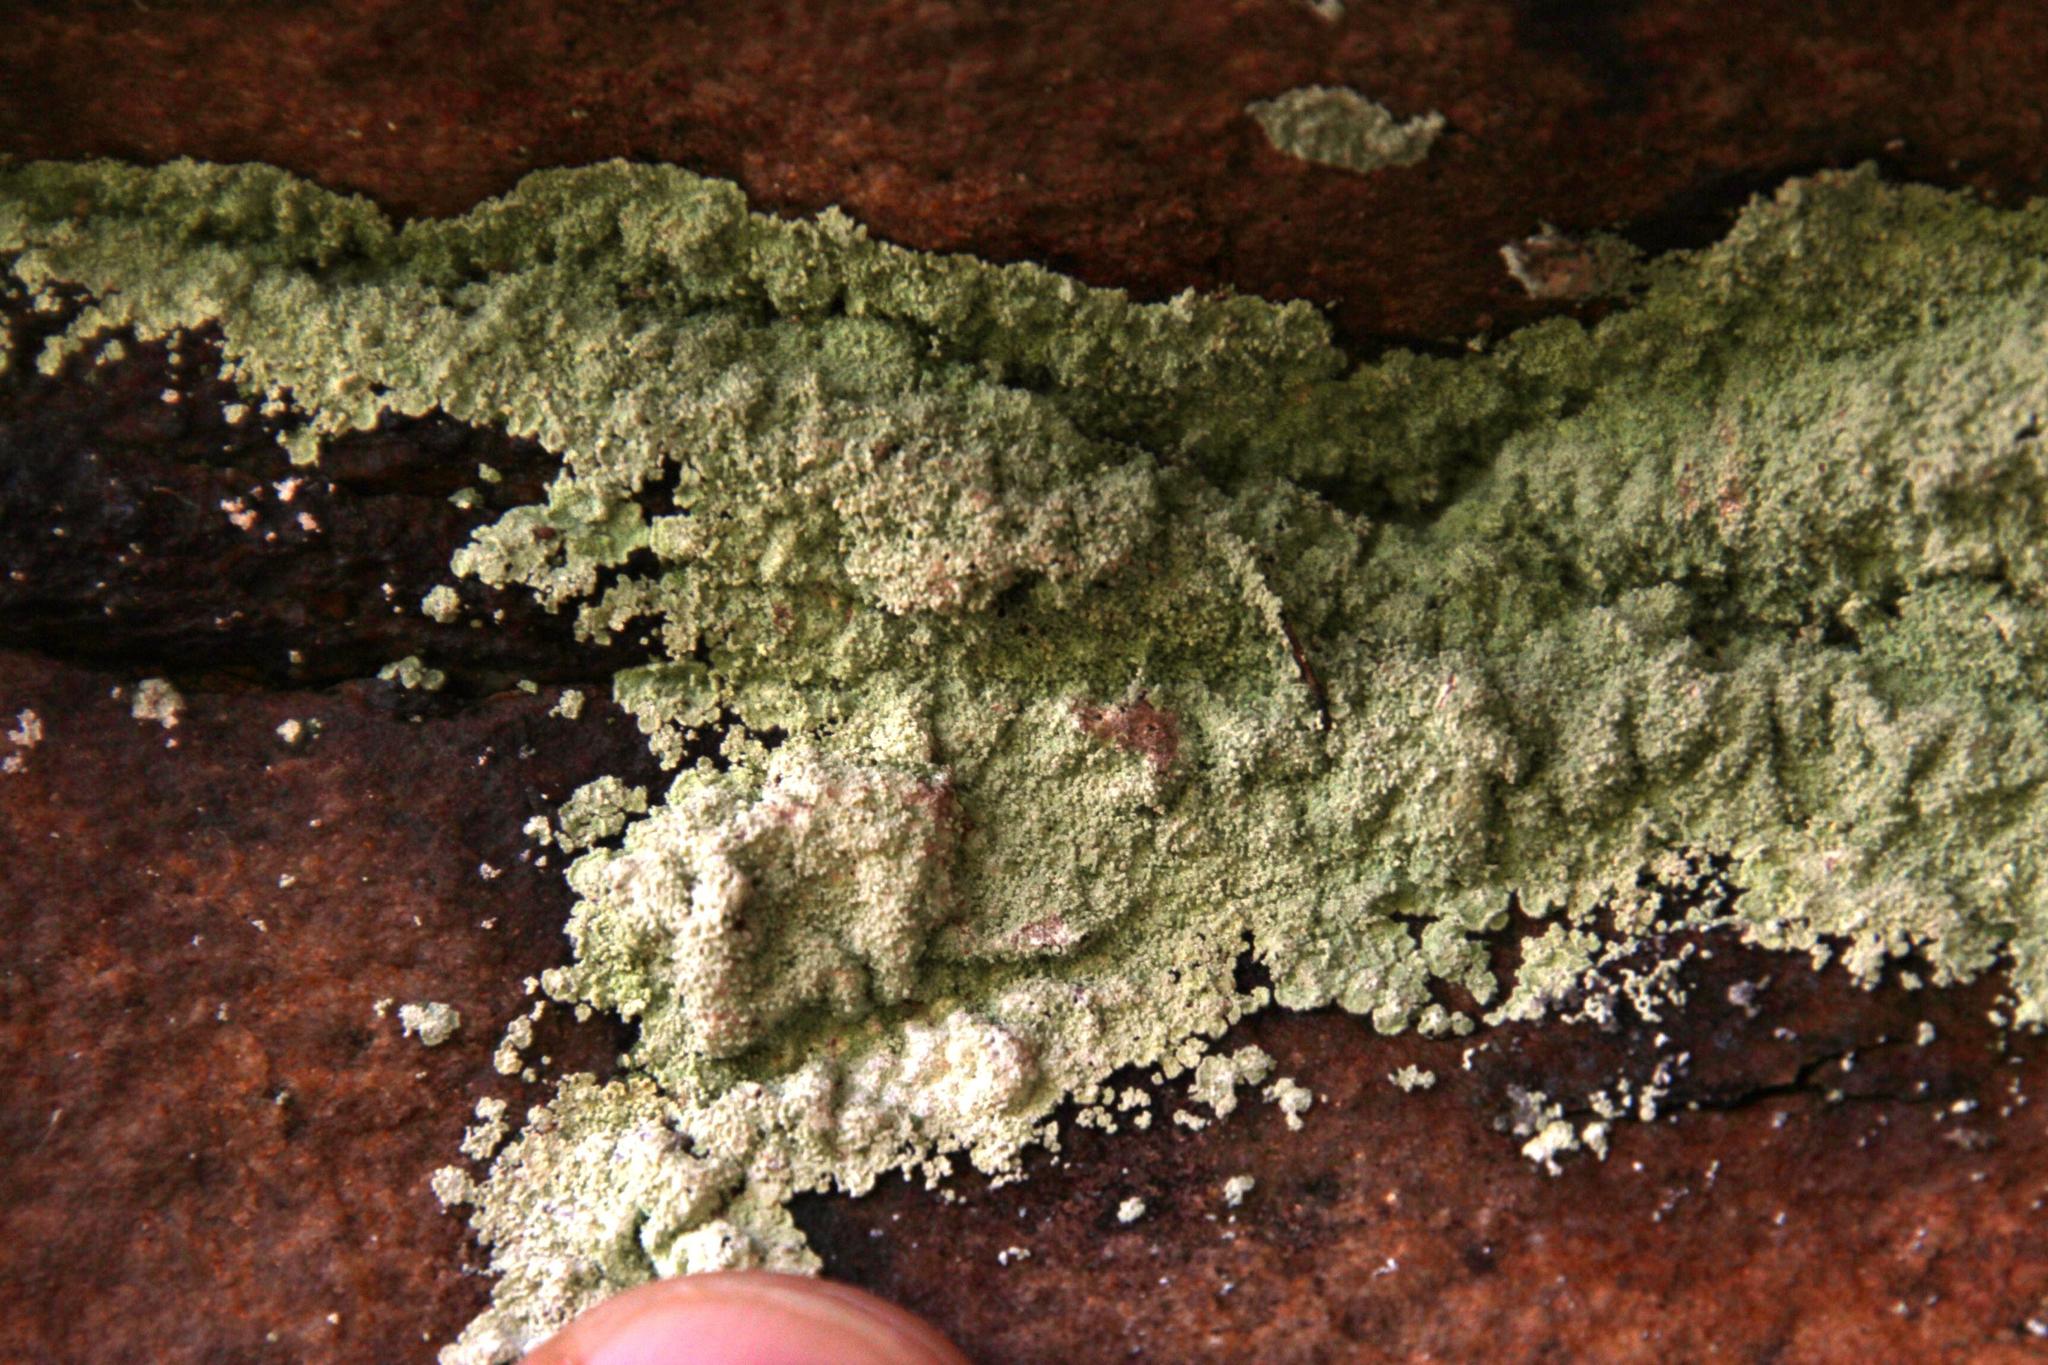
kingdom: Fungi
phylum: Ascomycota
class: Lecanoromycetes
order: Lecanorales
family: Stereocaulaceae
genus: Lepraria
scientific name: Lepraria sipmaniana
